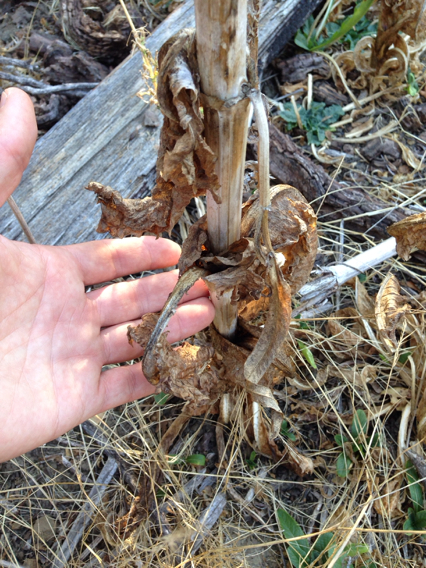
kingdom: Plantae
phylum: Tracheophyta
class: Magnoliopsida
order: Dipsacales
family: Caprifoliaceae
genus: Dipsacus
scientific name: Dipsacus sativus
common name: Fuller's teasel
